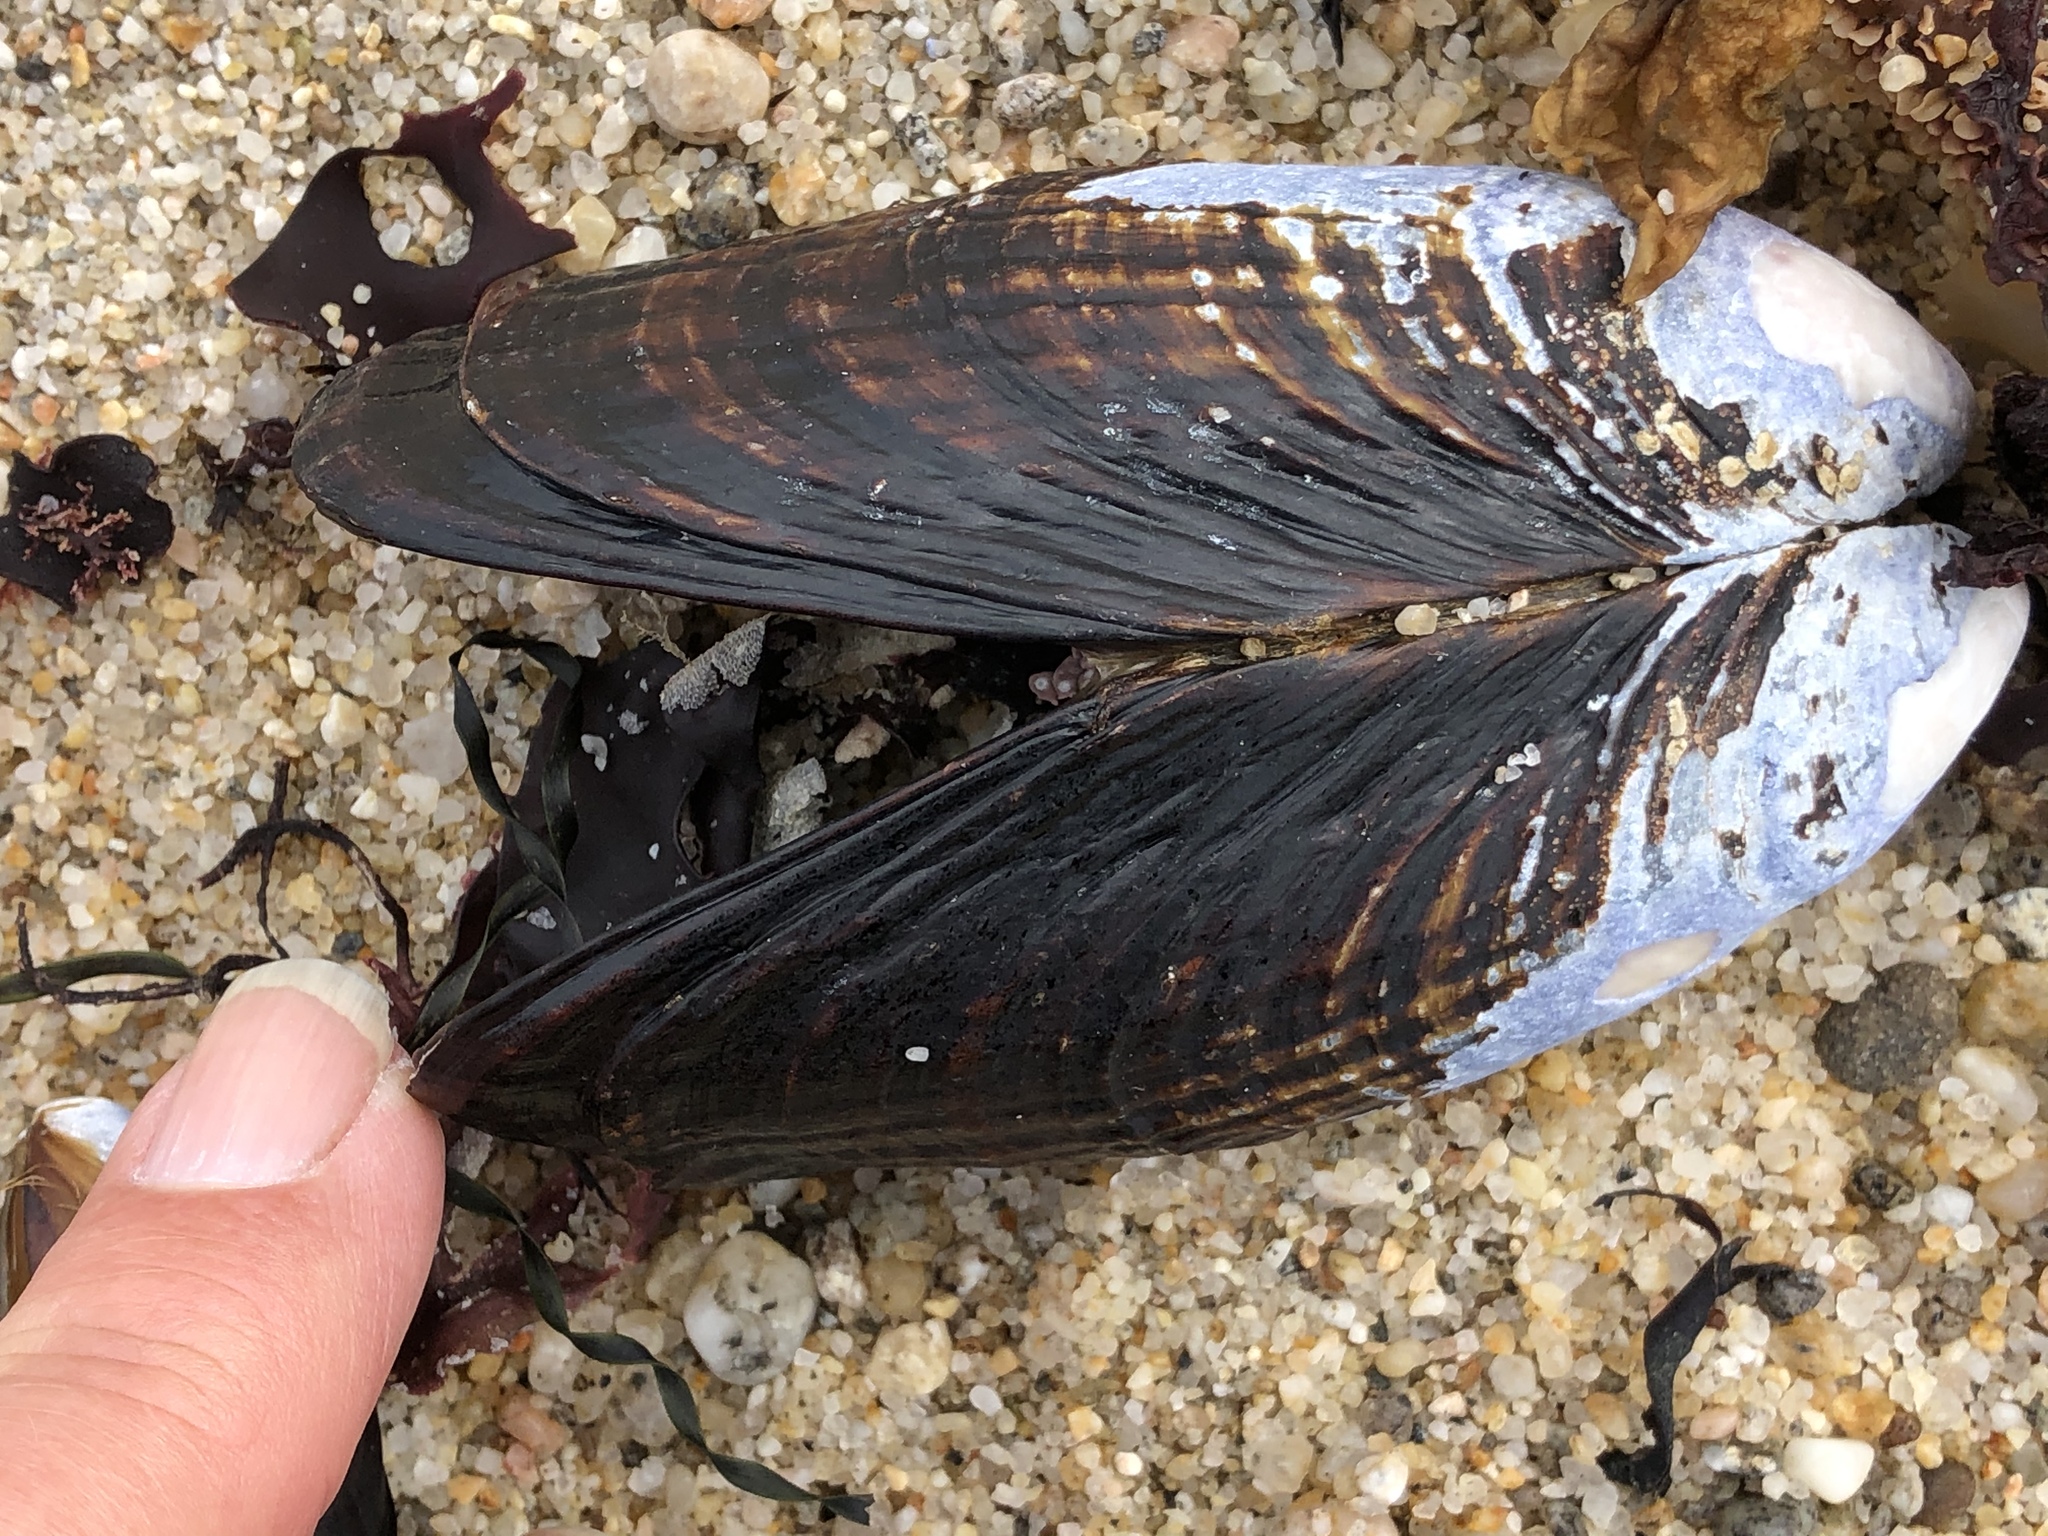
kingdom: Animalia
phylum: Mollusca
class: Bivalvia
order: Mytilida
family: Mytilidae
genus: Mytilus
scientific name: Mytilus californianus
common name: California mussel
